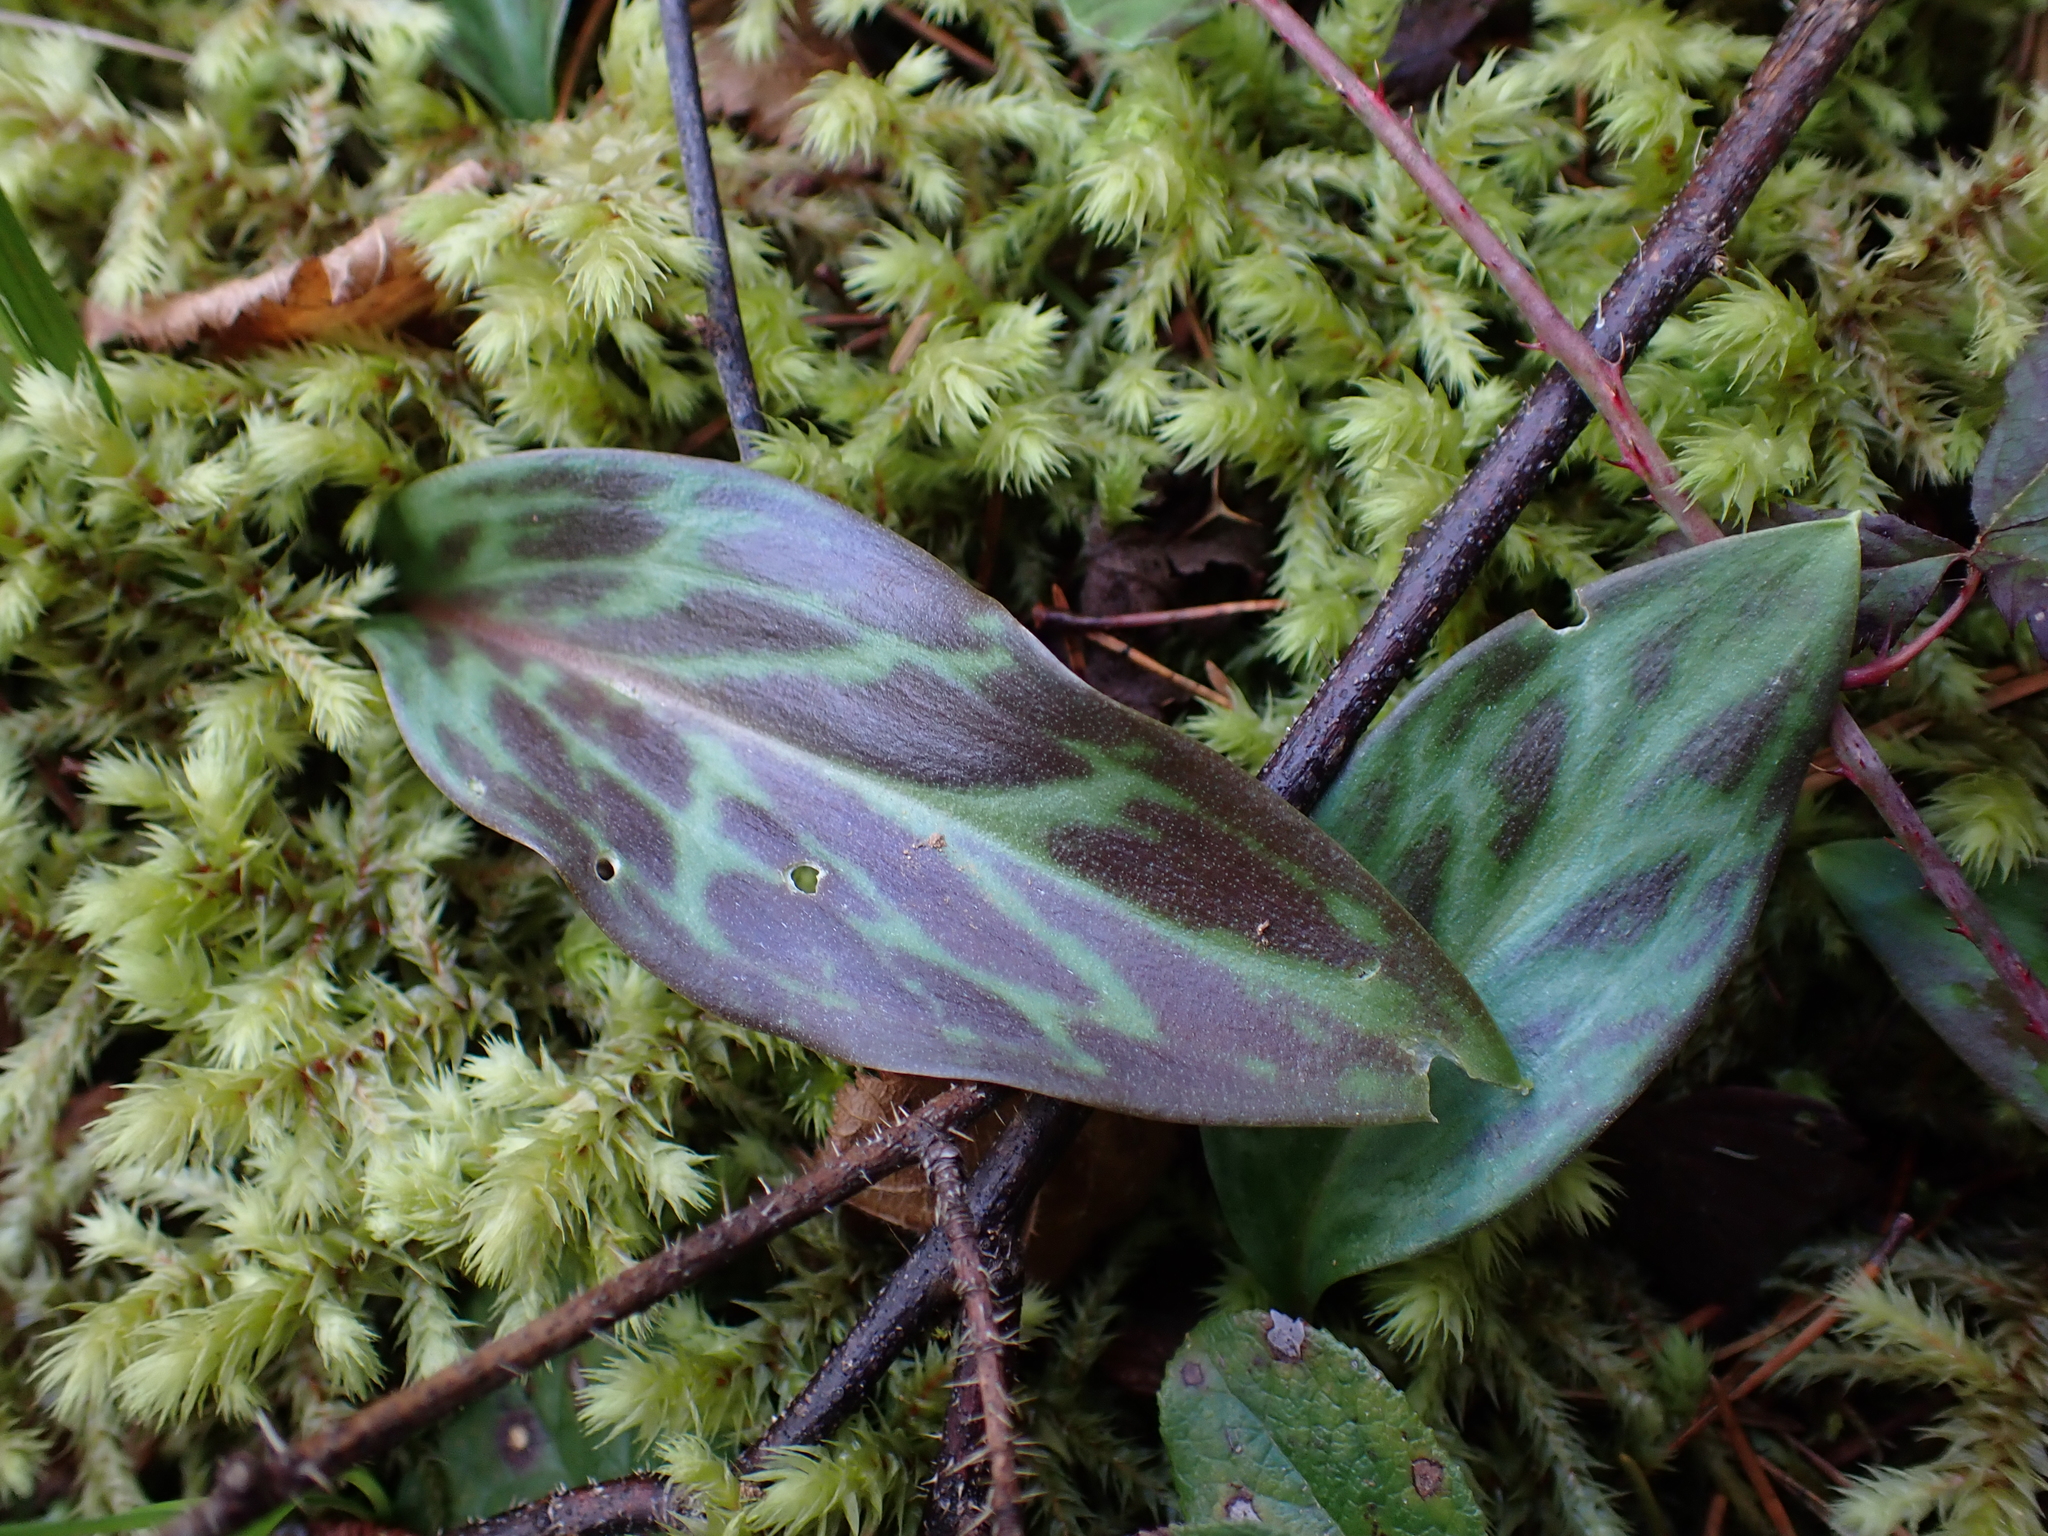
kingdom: Plantae
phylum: Tracheophyta
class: Liliopsida
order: Liliales
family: Liliaceae
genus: Erythronium
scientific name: Erythronium oregonum
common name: Giant adder's-tongue
